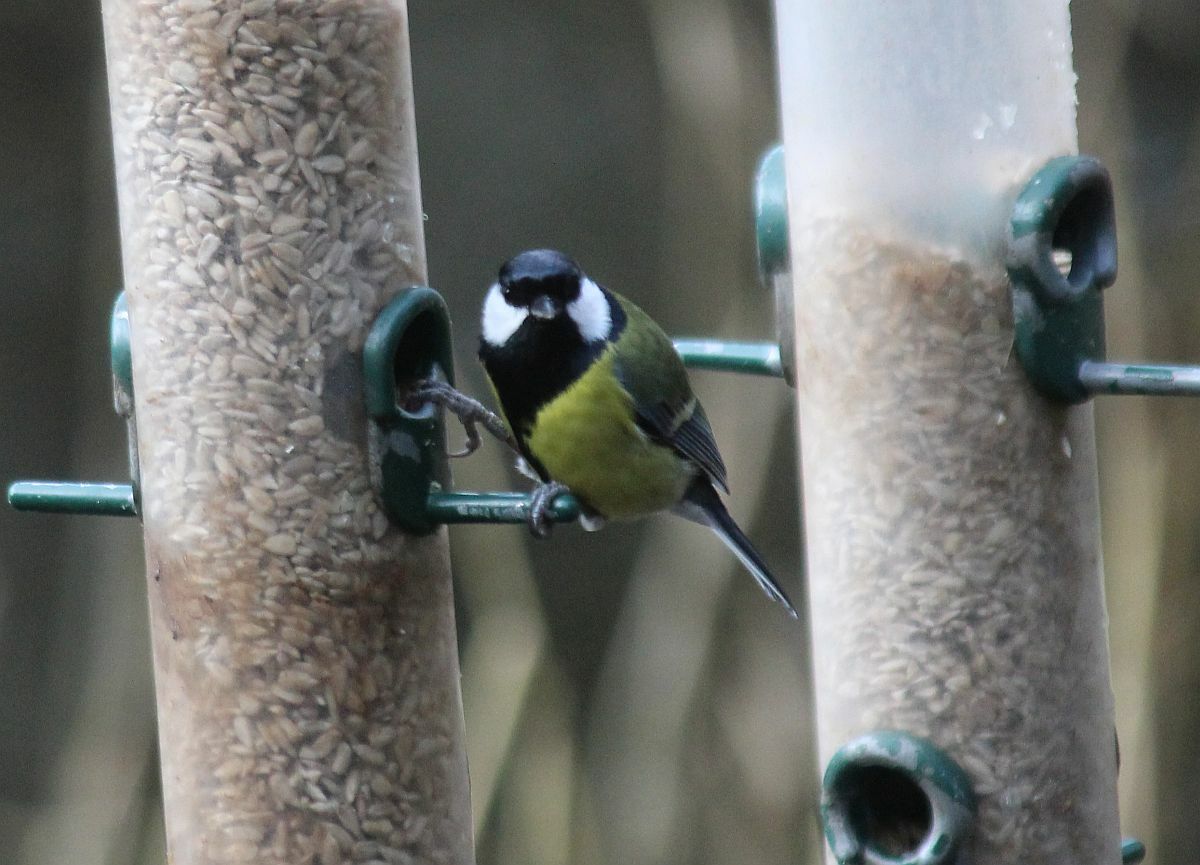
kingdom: Animalia
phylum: Chordata
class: Aves
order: Passeriformes
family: Paridae
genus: Parus
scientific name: Parus major
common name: Great tit
